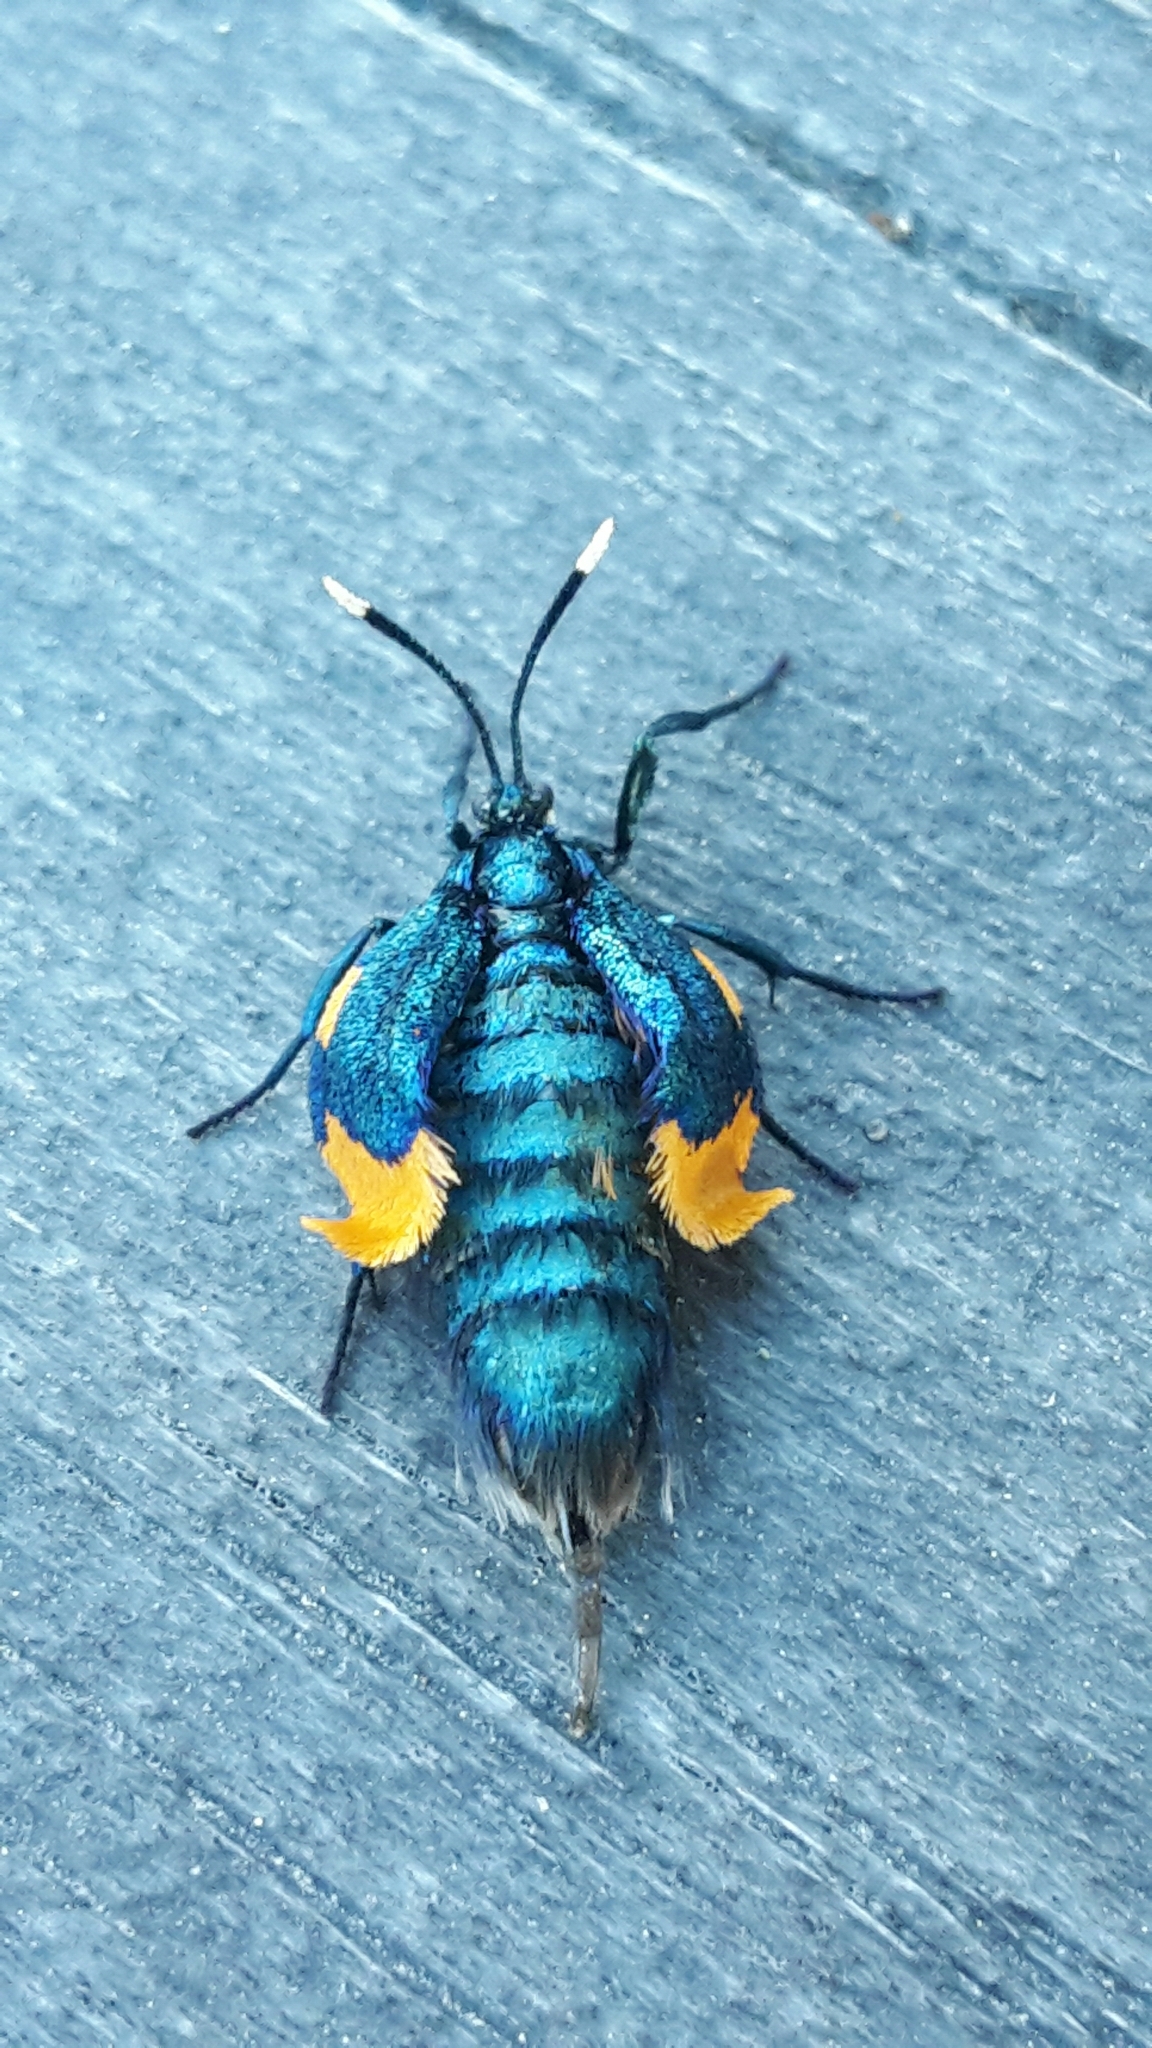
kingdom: Animalia
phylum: Arthropoda
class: Insecta
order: Lepidoptera
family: Psychidae
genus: Cebysa
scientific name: Cebysa leucotelus
